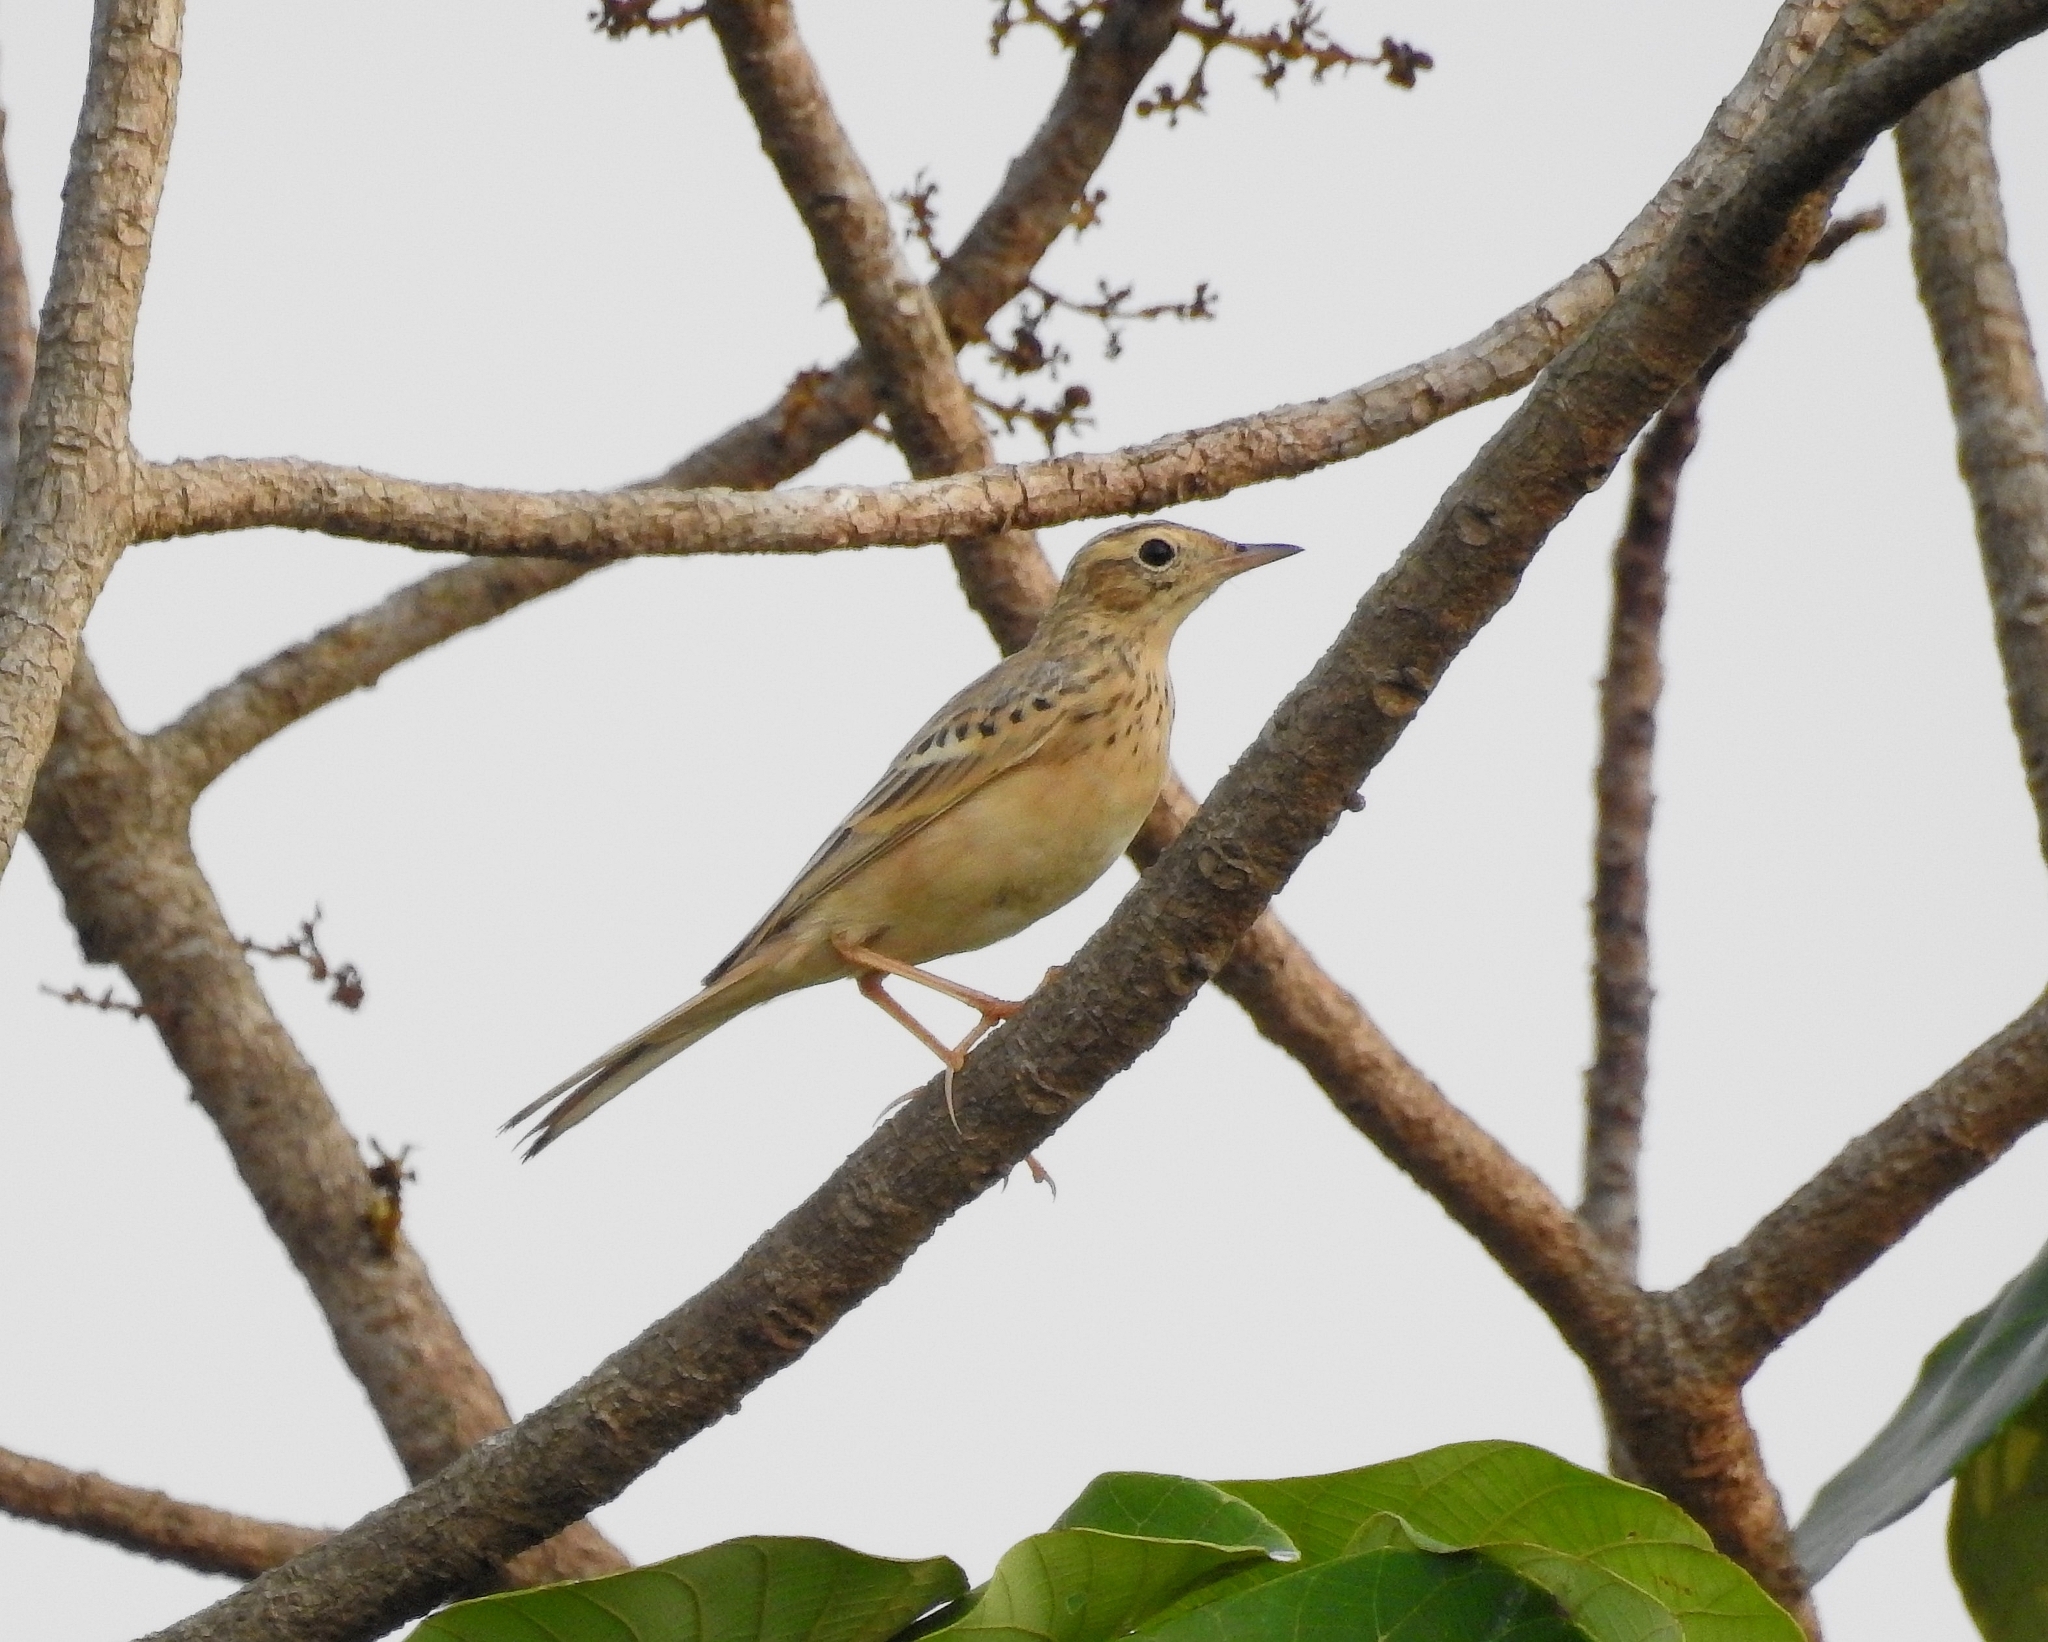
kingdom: Animalia
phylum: Chordata
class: Aves
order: Passeriformes
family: Motacillidae
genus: Anthus
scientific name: Anthus godlewskii
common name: Blyth's pipit
